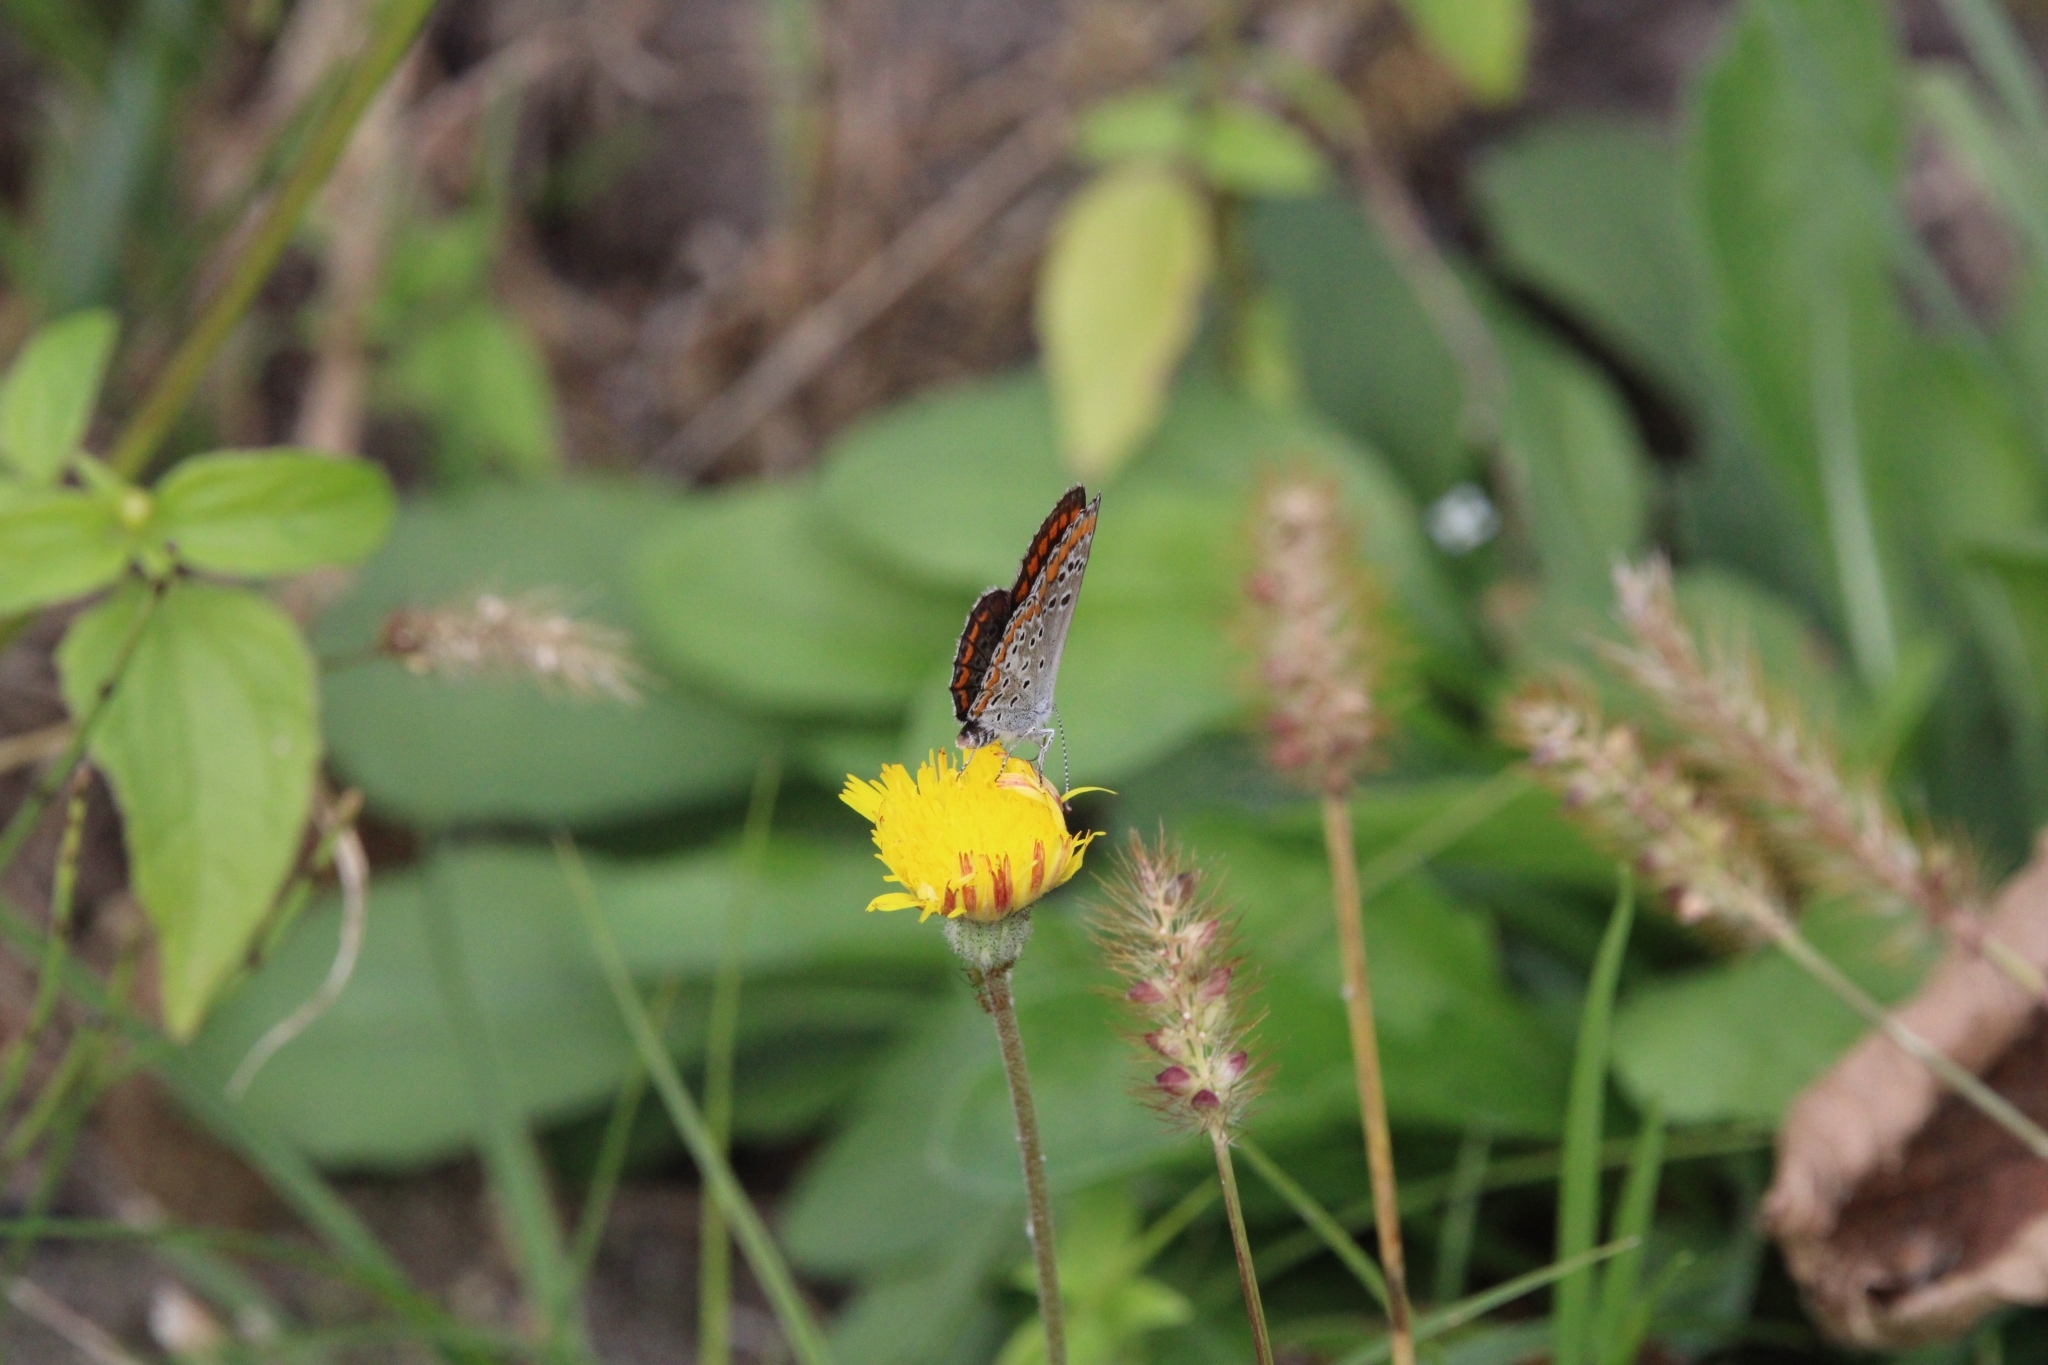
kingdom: Animalia
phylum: Arthropoda
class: Insecta
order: Lepidoptera
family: Lycaenidae
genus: Aricia
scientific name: Aricia agestis
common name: Brown argus
